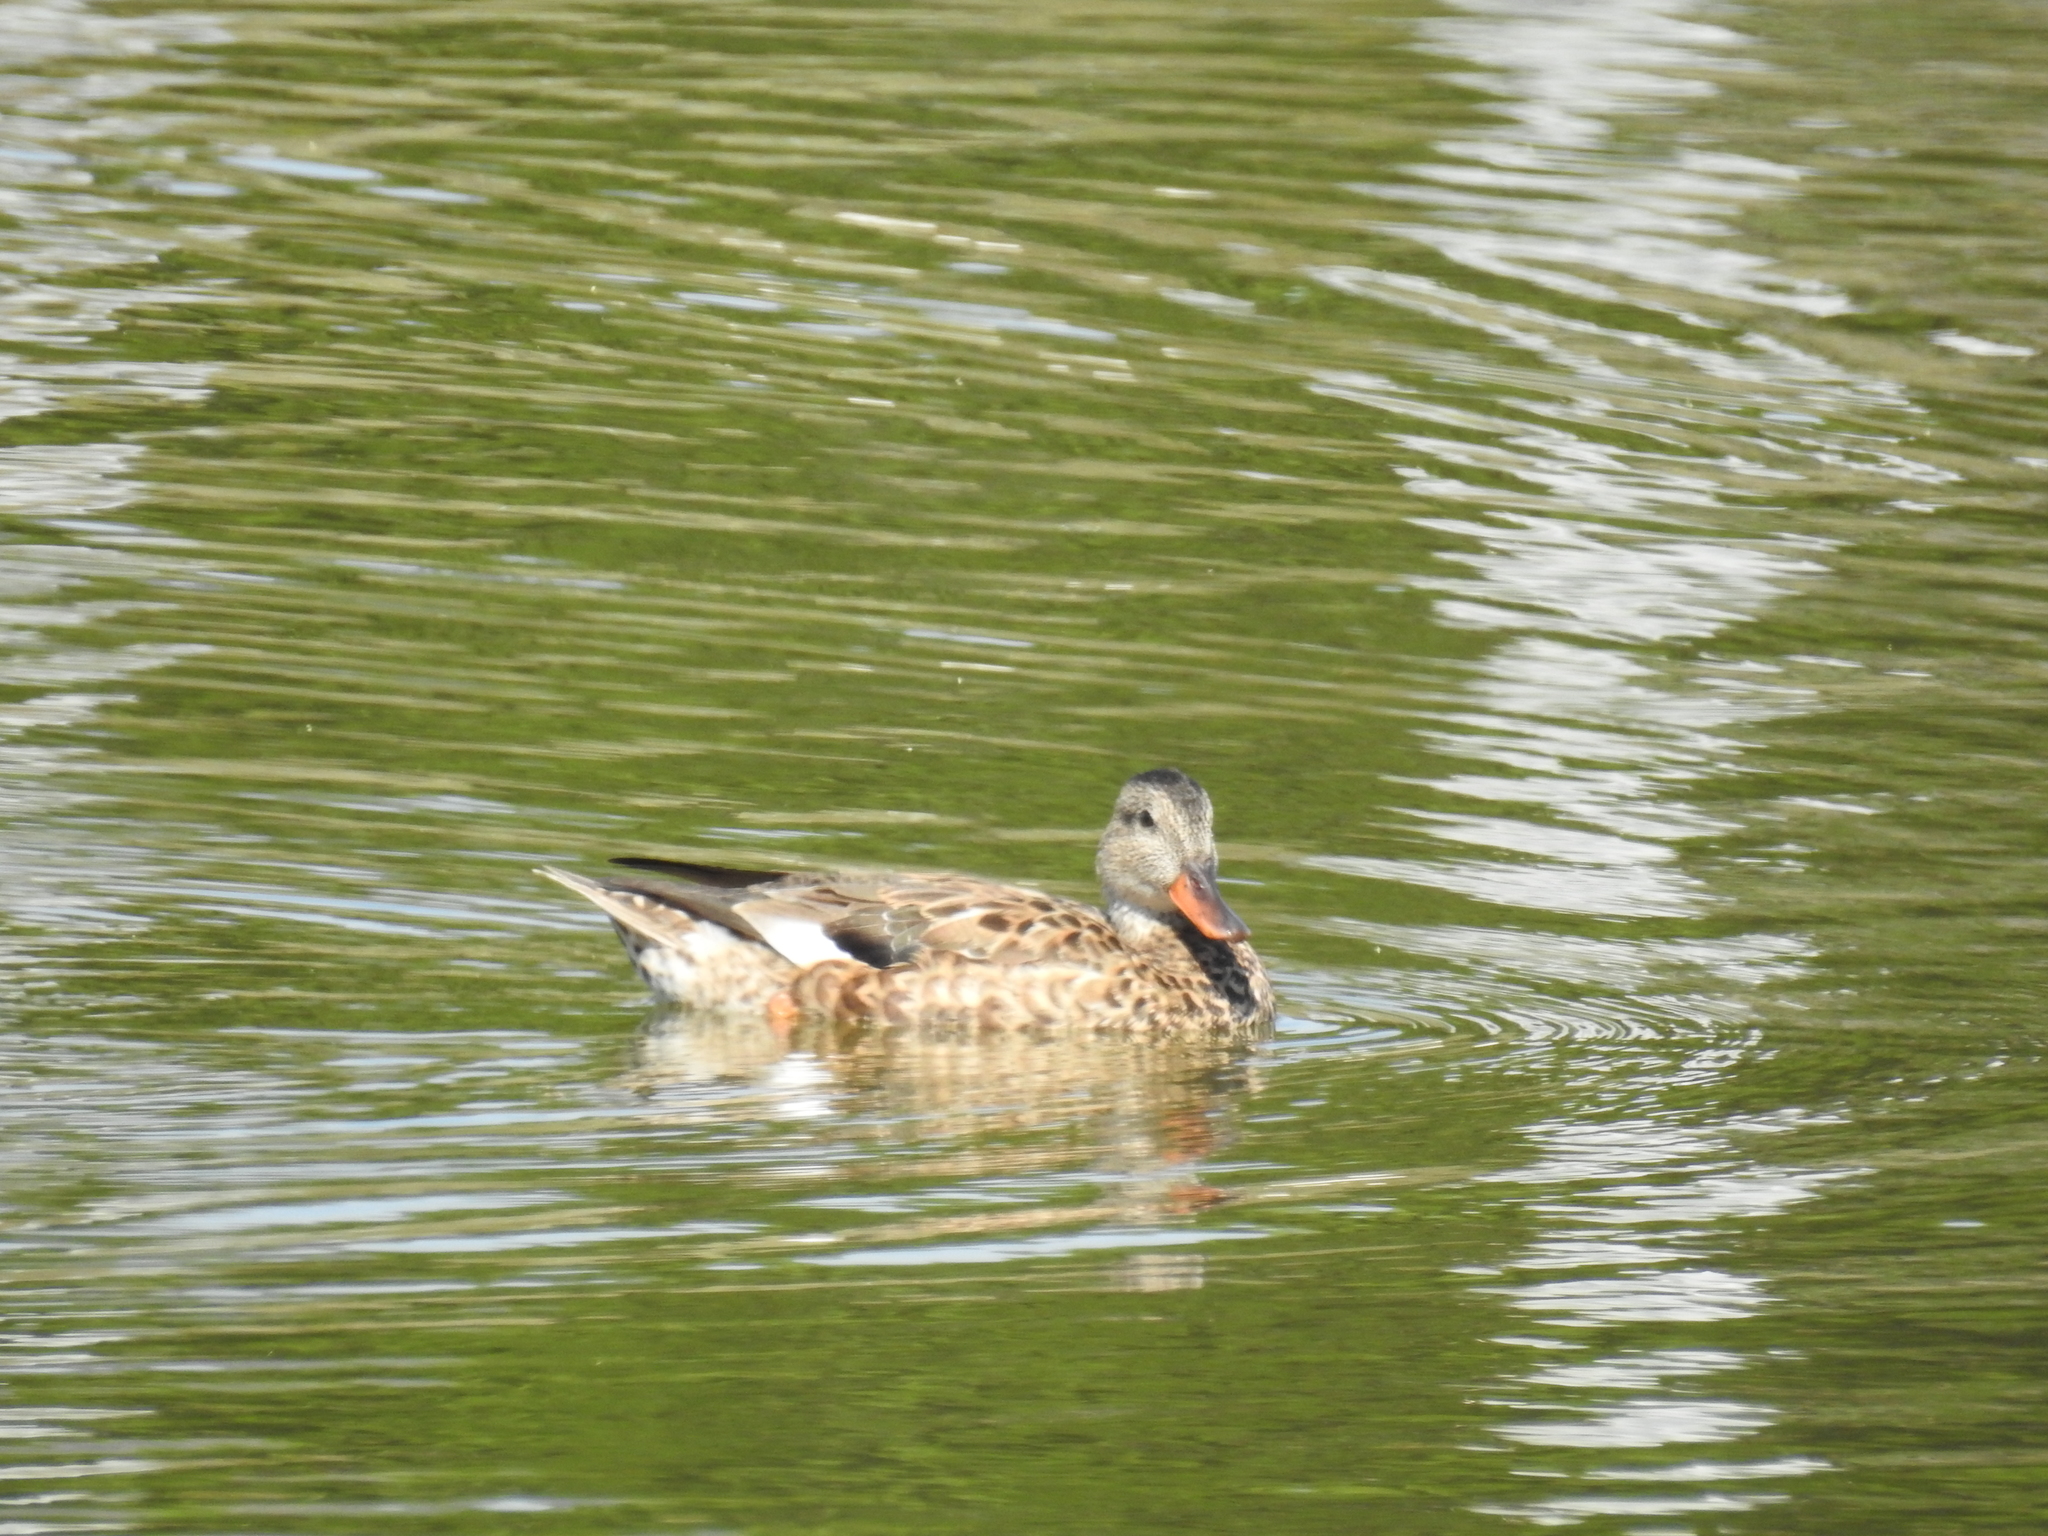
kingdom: Animalia
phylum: Chordata
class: Aves
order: Anseriformes
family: Anatidae
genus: Mareca
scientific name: Mareca strepera
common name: Gadwall
